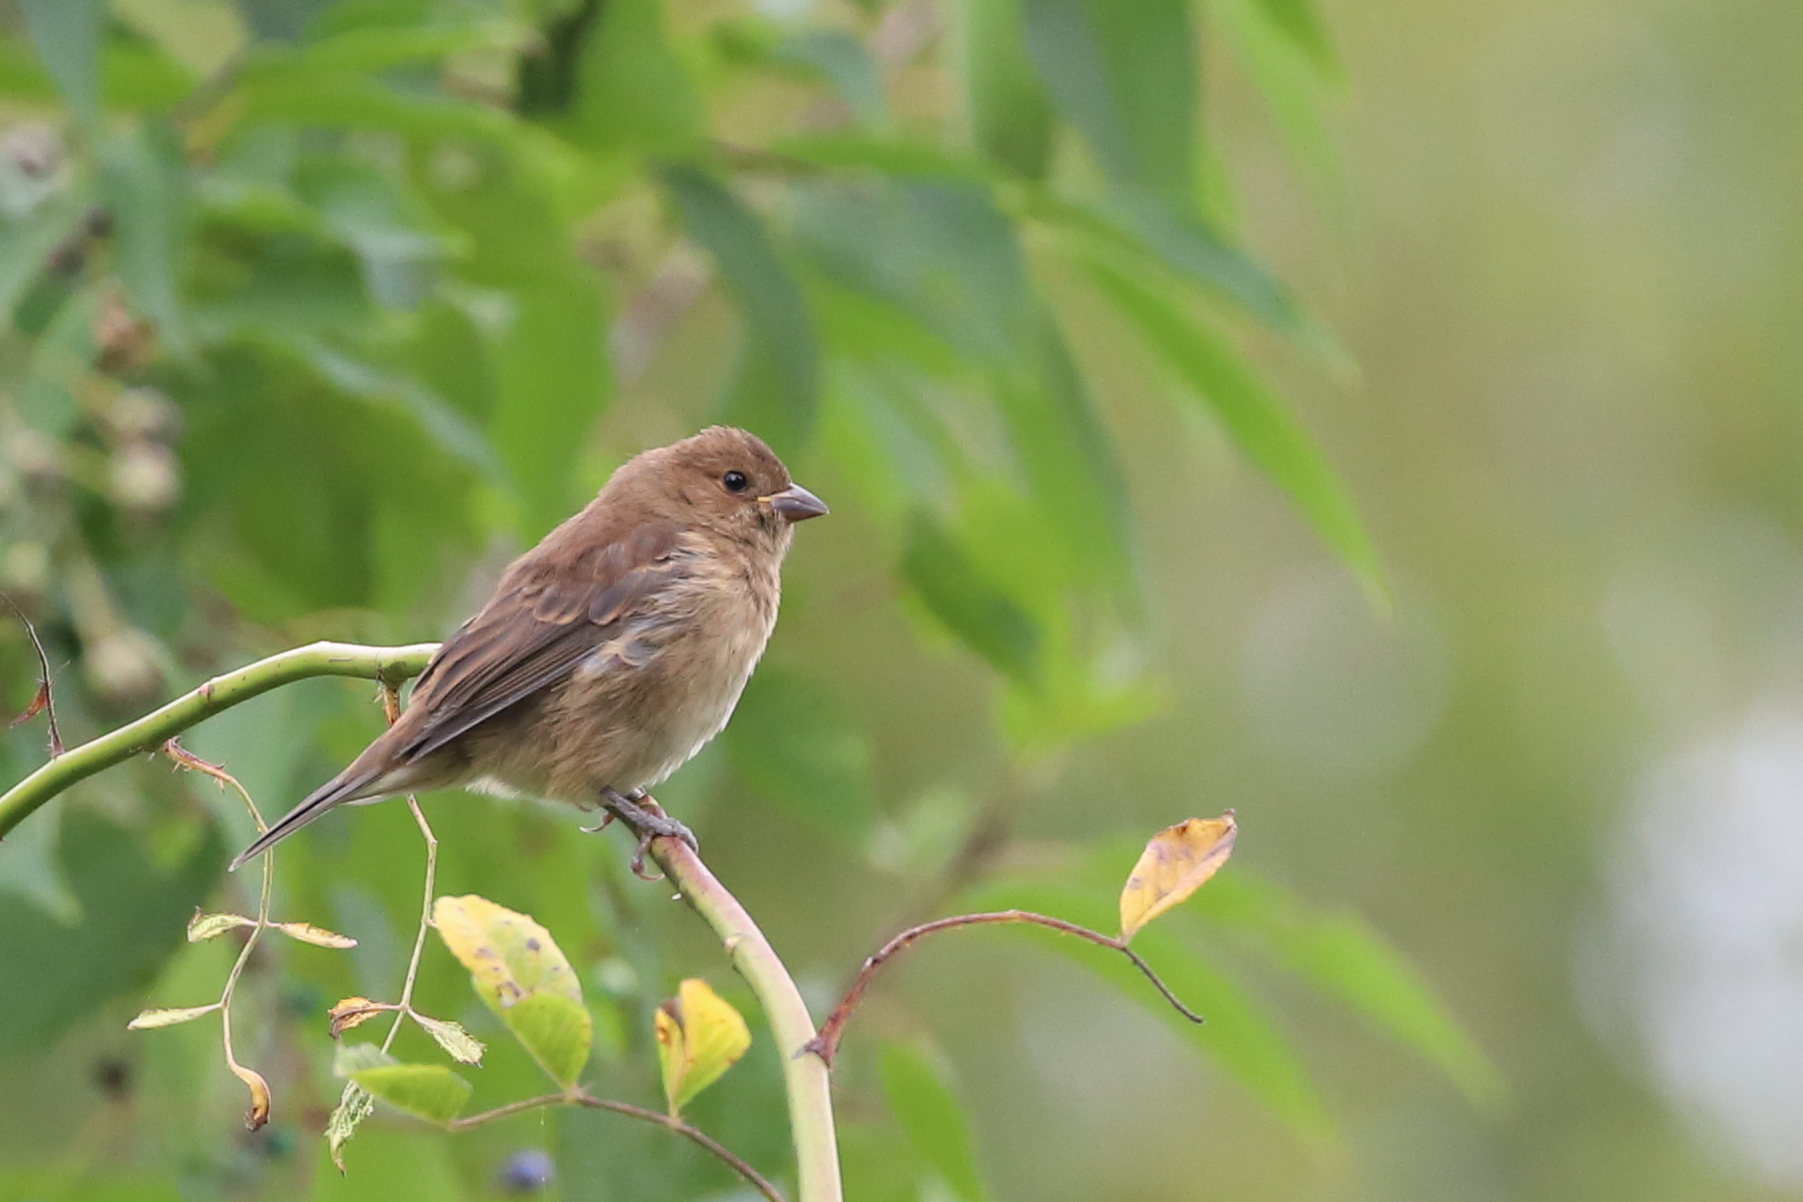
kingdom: Animalia
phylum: Chordata
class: Aves
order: Passeriformes
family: Cardinalidae
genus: Passerina
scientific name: Passerina cyanea
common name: Indigo bunting
